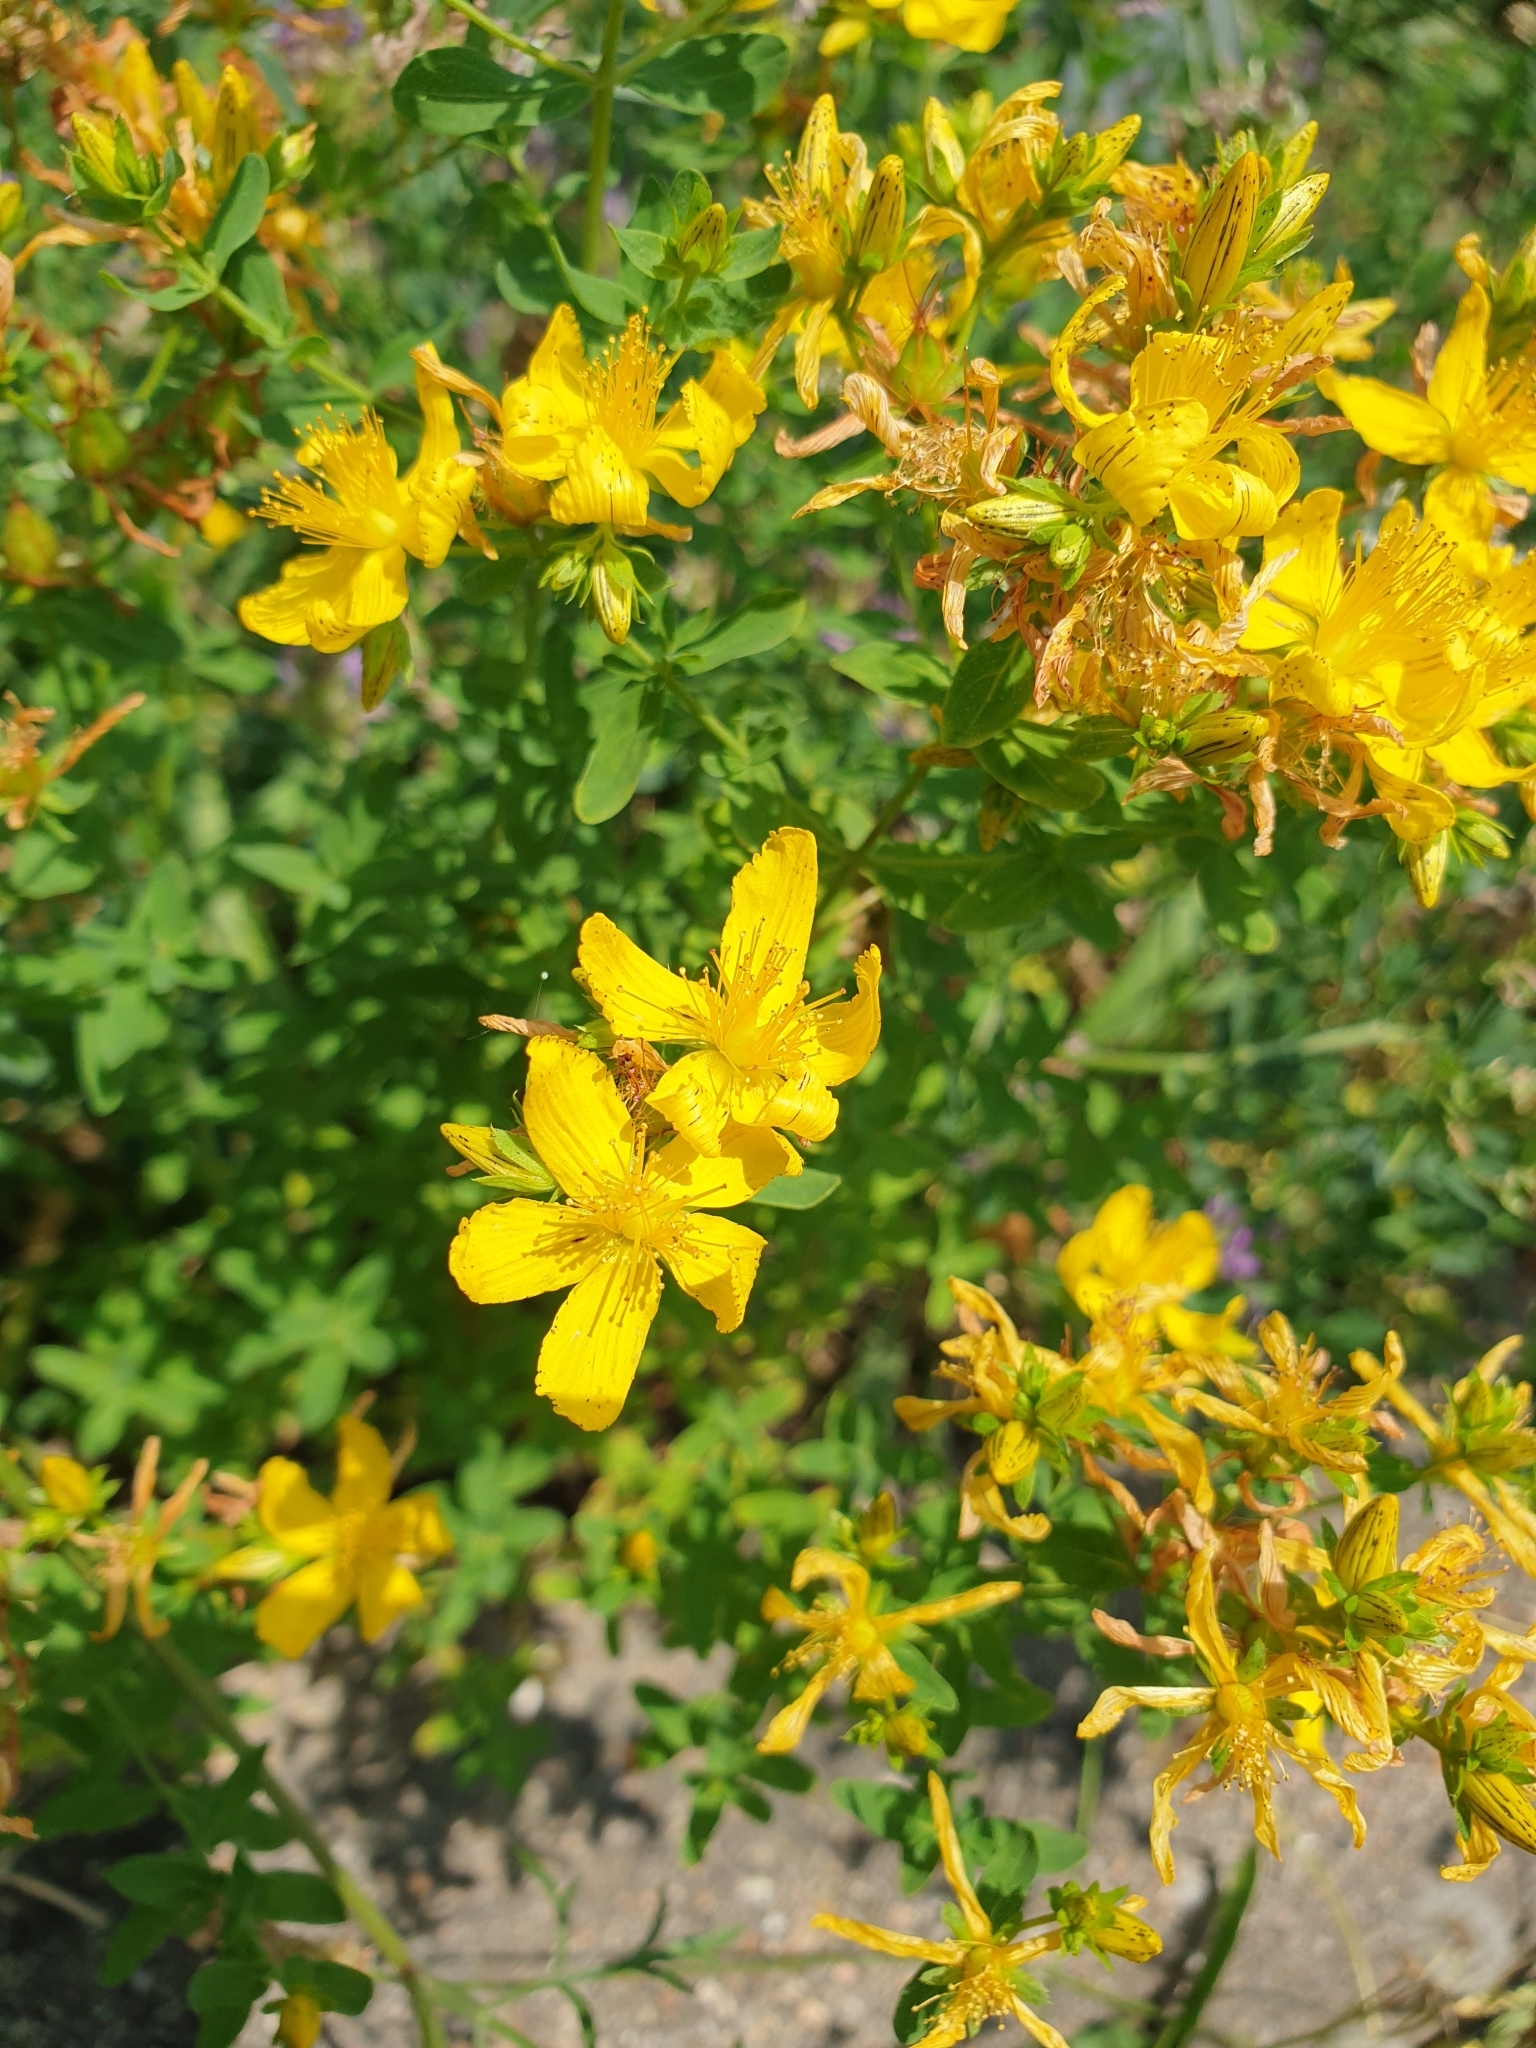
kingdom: Plantae
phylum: Tracheophyta
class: Magnoliopsida
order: Malpighiales
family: Hypericaceae
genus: Hypericum
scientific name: Hypericum perforatum
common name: Common st. johnswort
